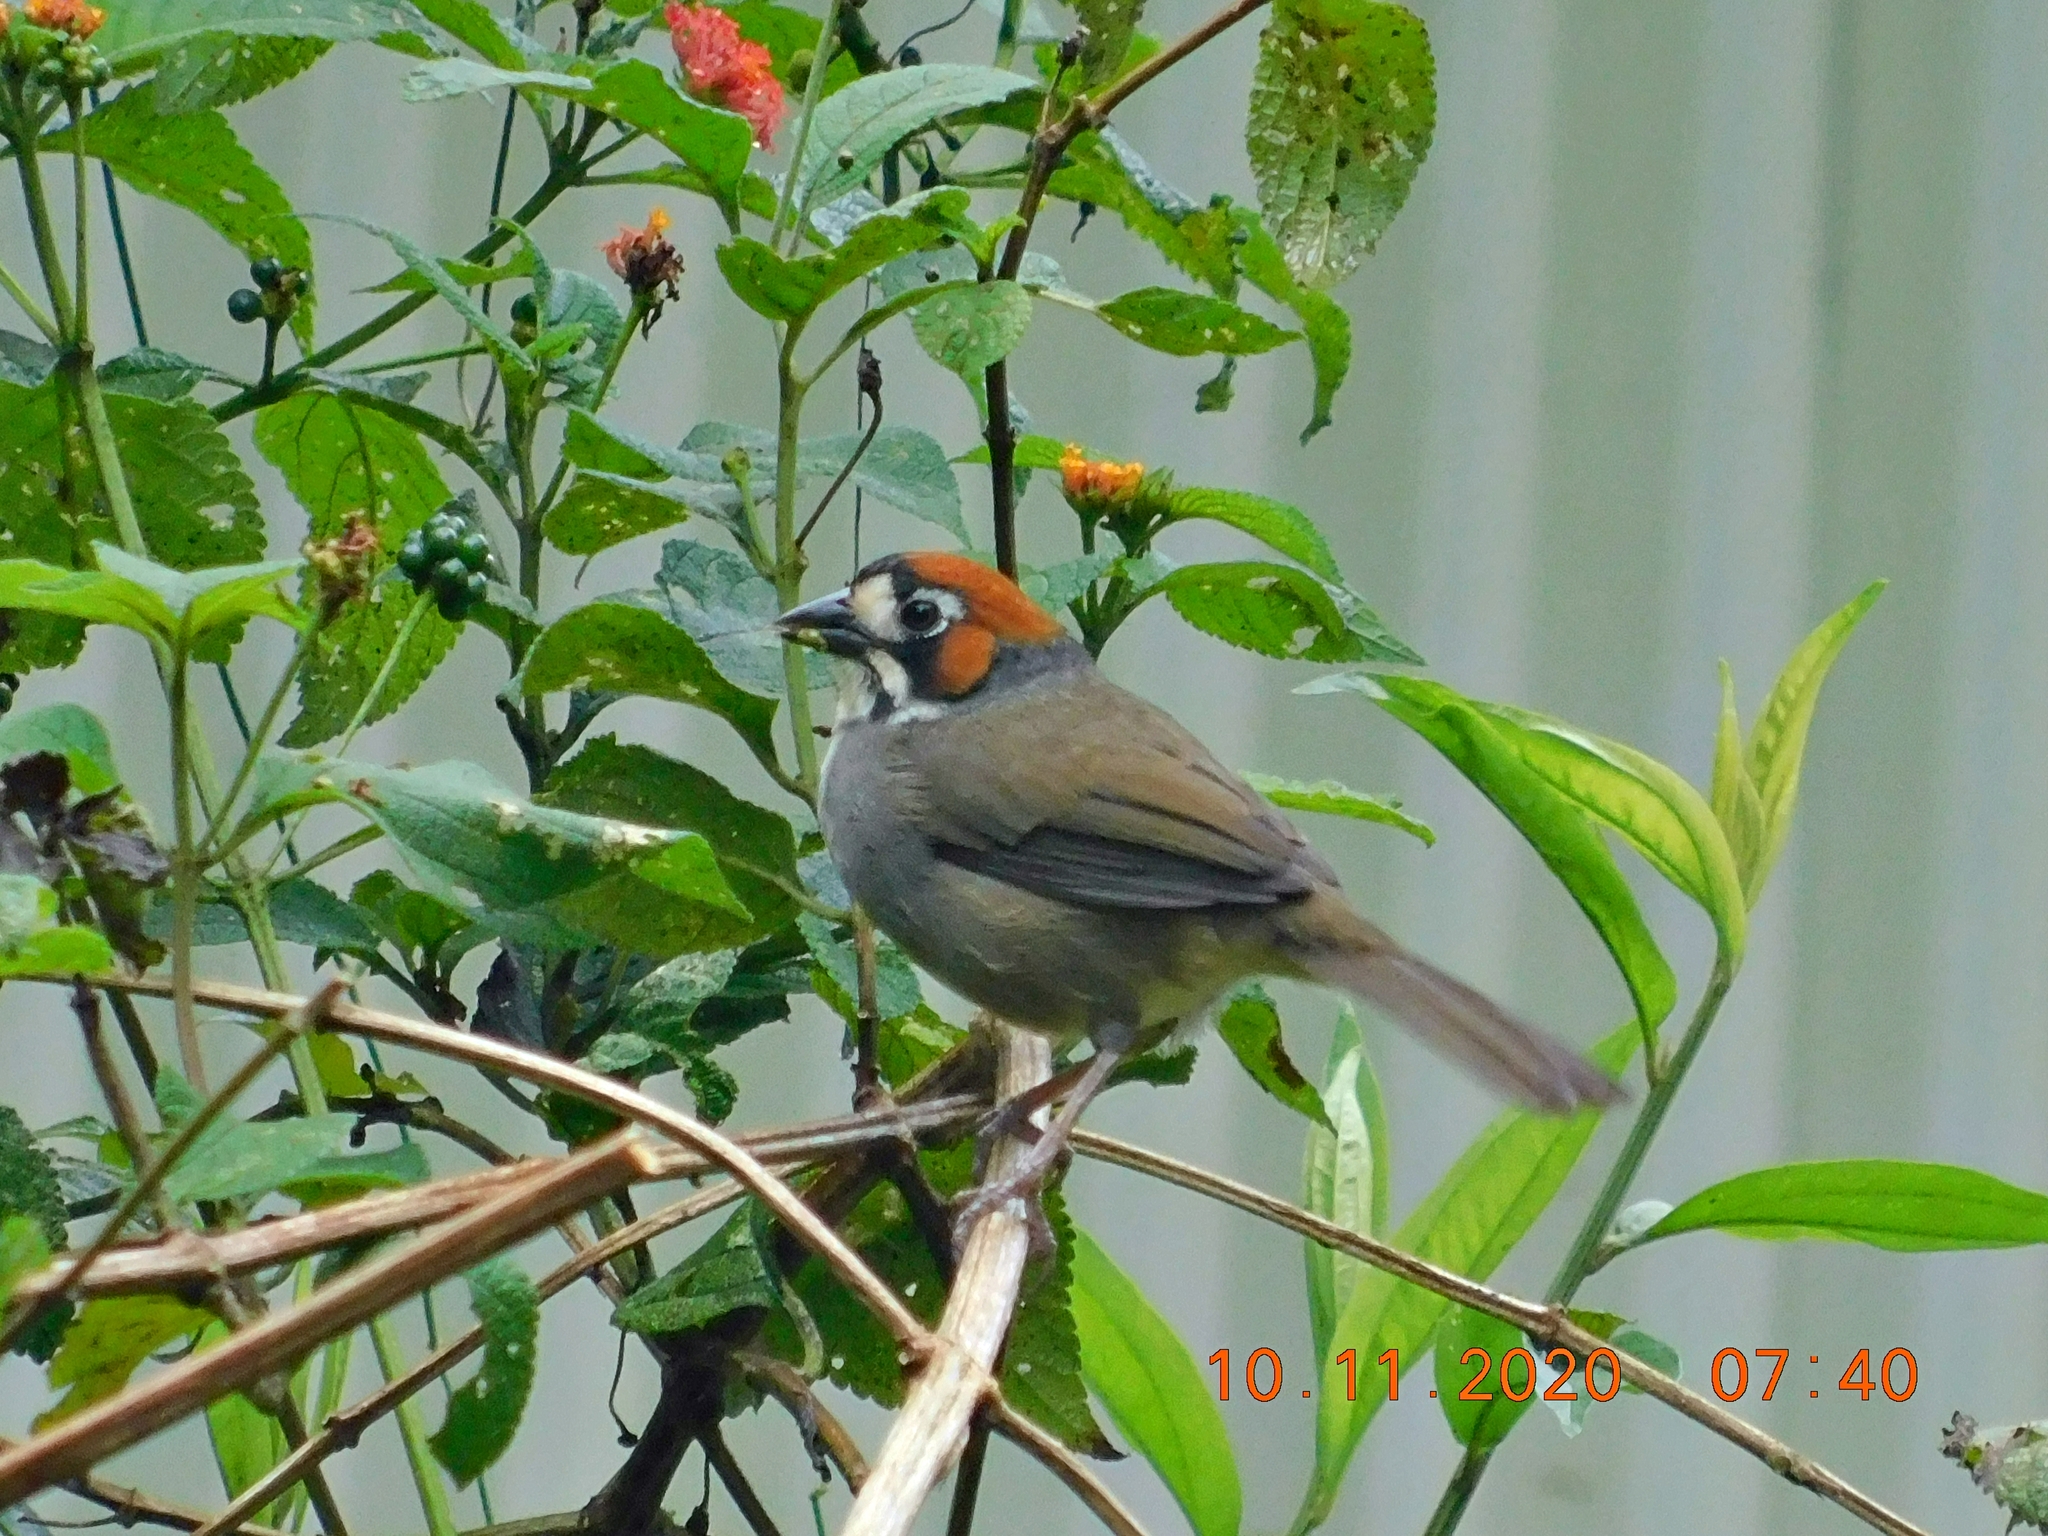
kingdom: Animalia
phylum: Chordata
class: Aves
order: Passeriformes
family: Passerellidae
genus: Melozone
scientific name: Melozone cabanisi
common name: Cabanis's ground sparrow
